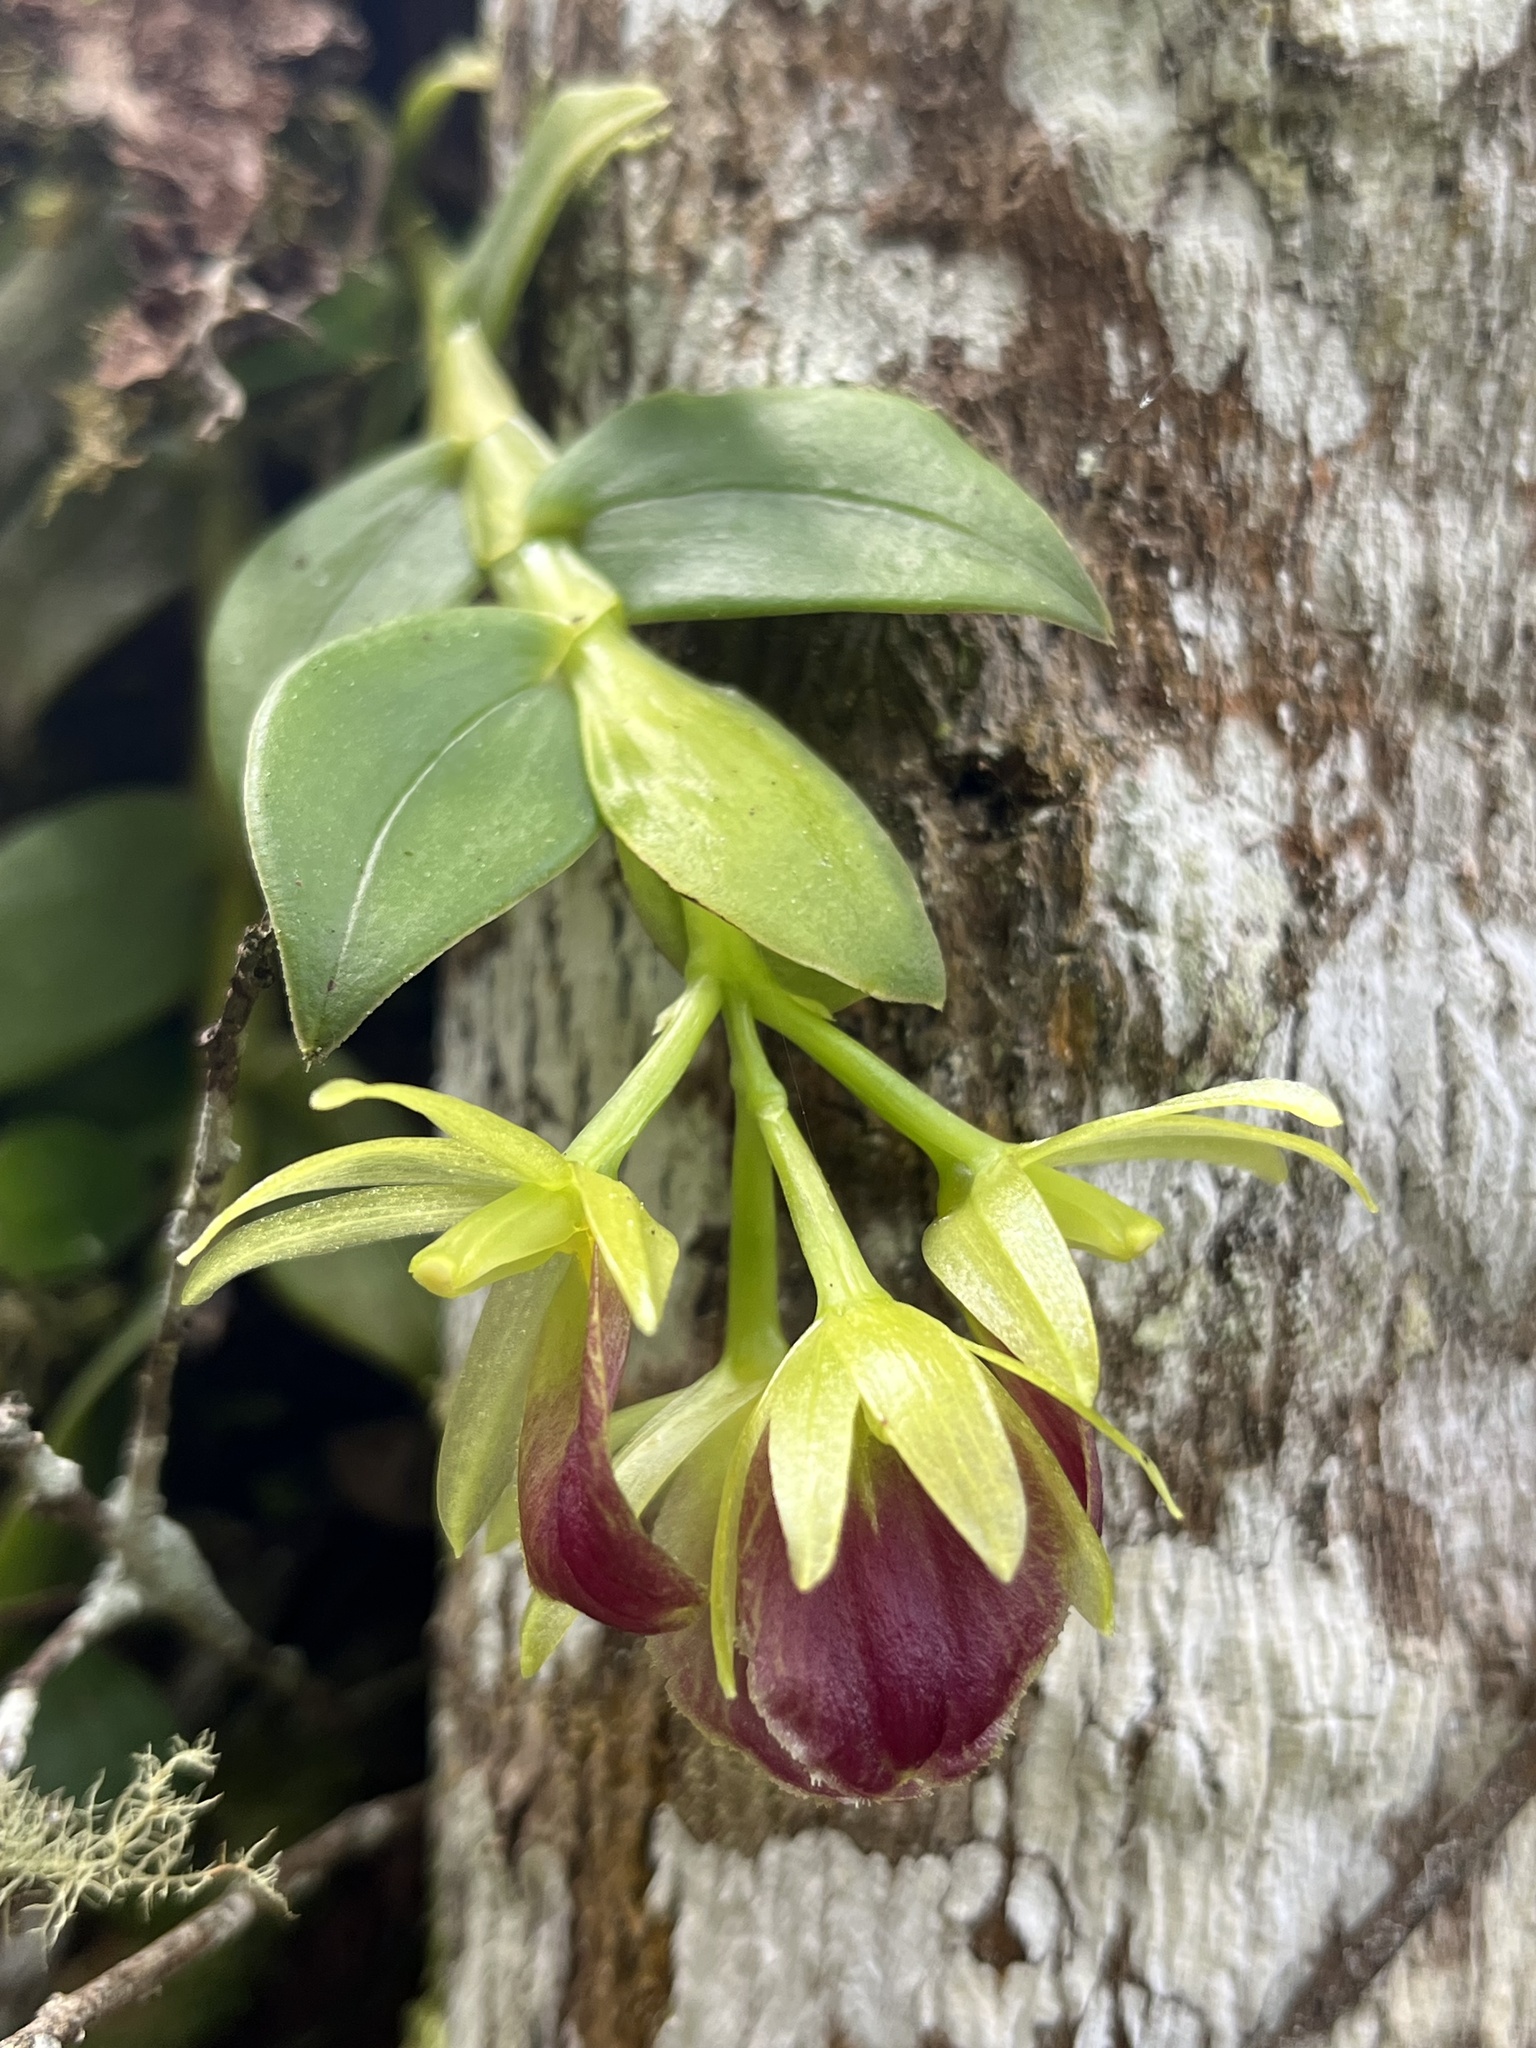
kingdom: Plantae
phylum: Tracheophyta
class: Liliopsida
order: Asparagales
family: Orchidaceae
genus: Epidendrum
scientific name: Epidendrum megalospathum
